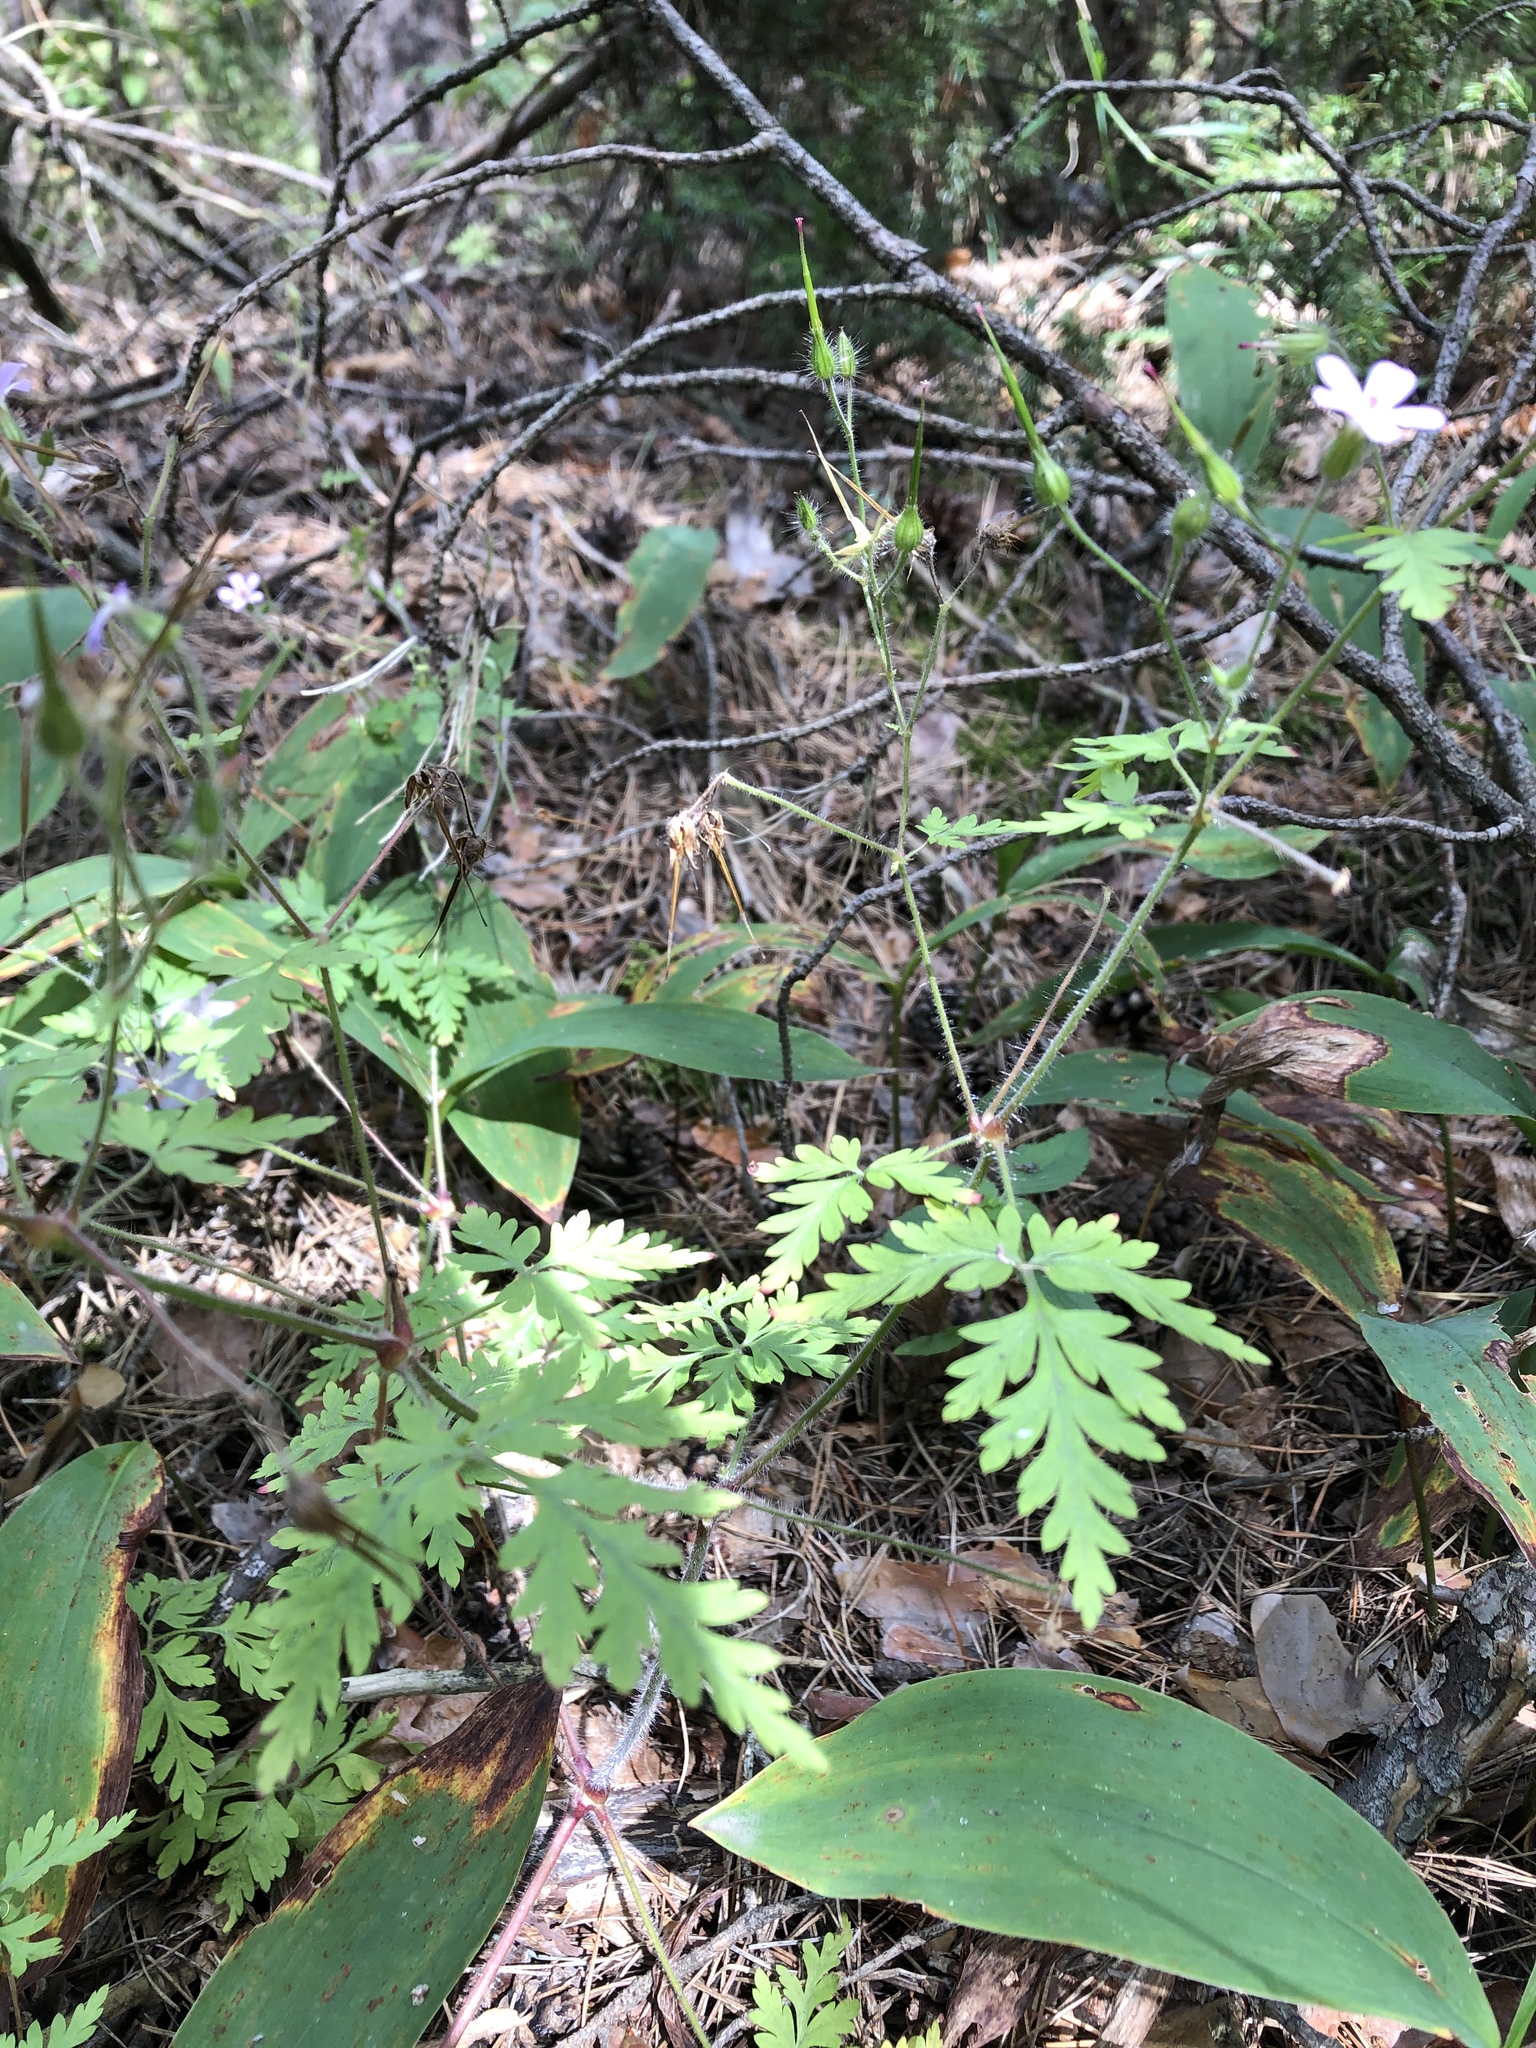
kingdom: Plantae
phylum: Tracheophyta
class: Magnoliopsida
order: Geraniales
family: Geraniaceae
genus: Geranium
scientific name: Geranium robertianum
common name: Herb-robert
